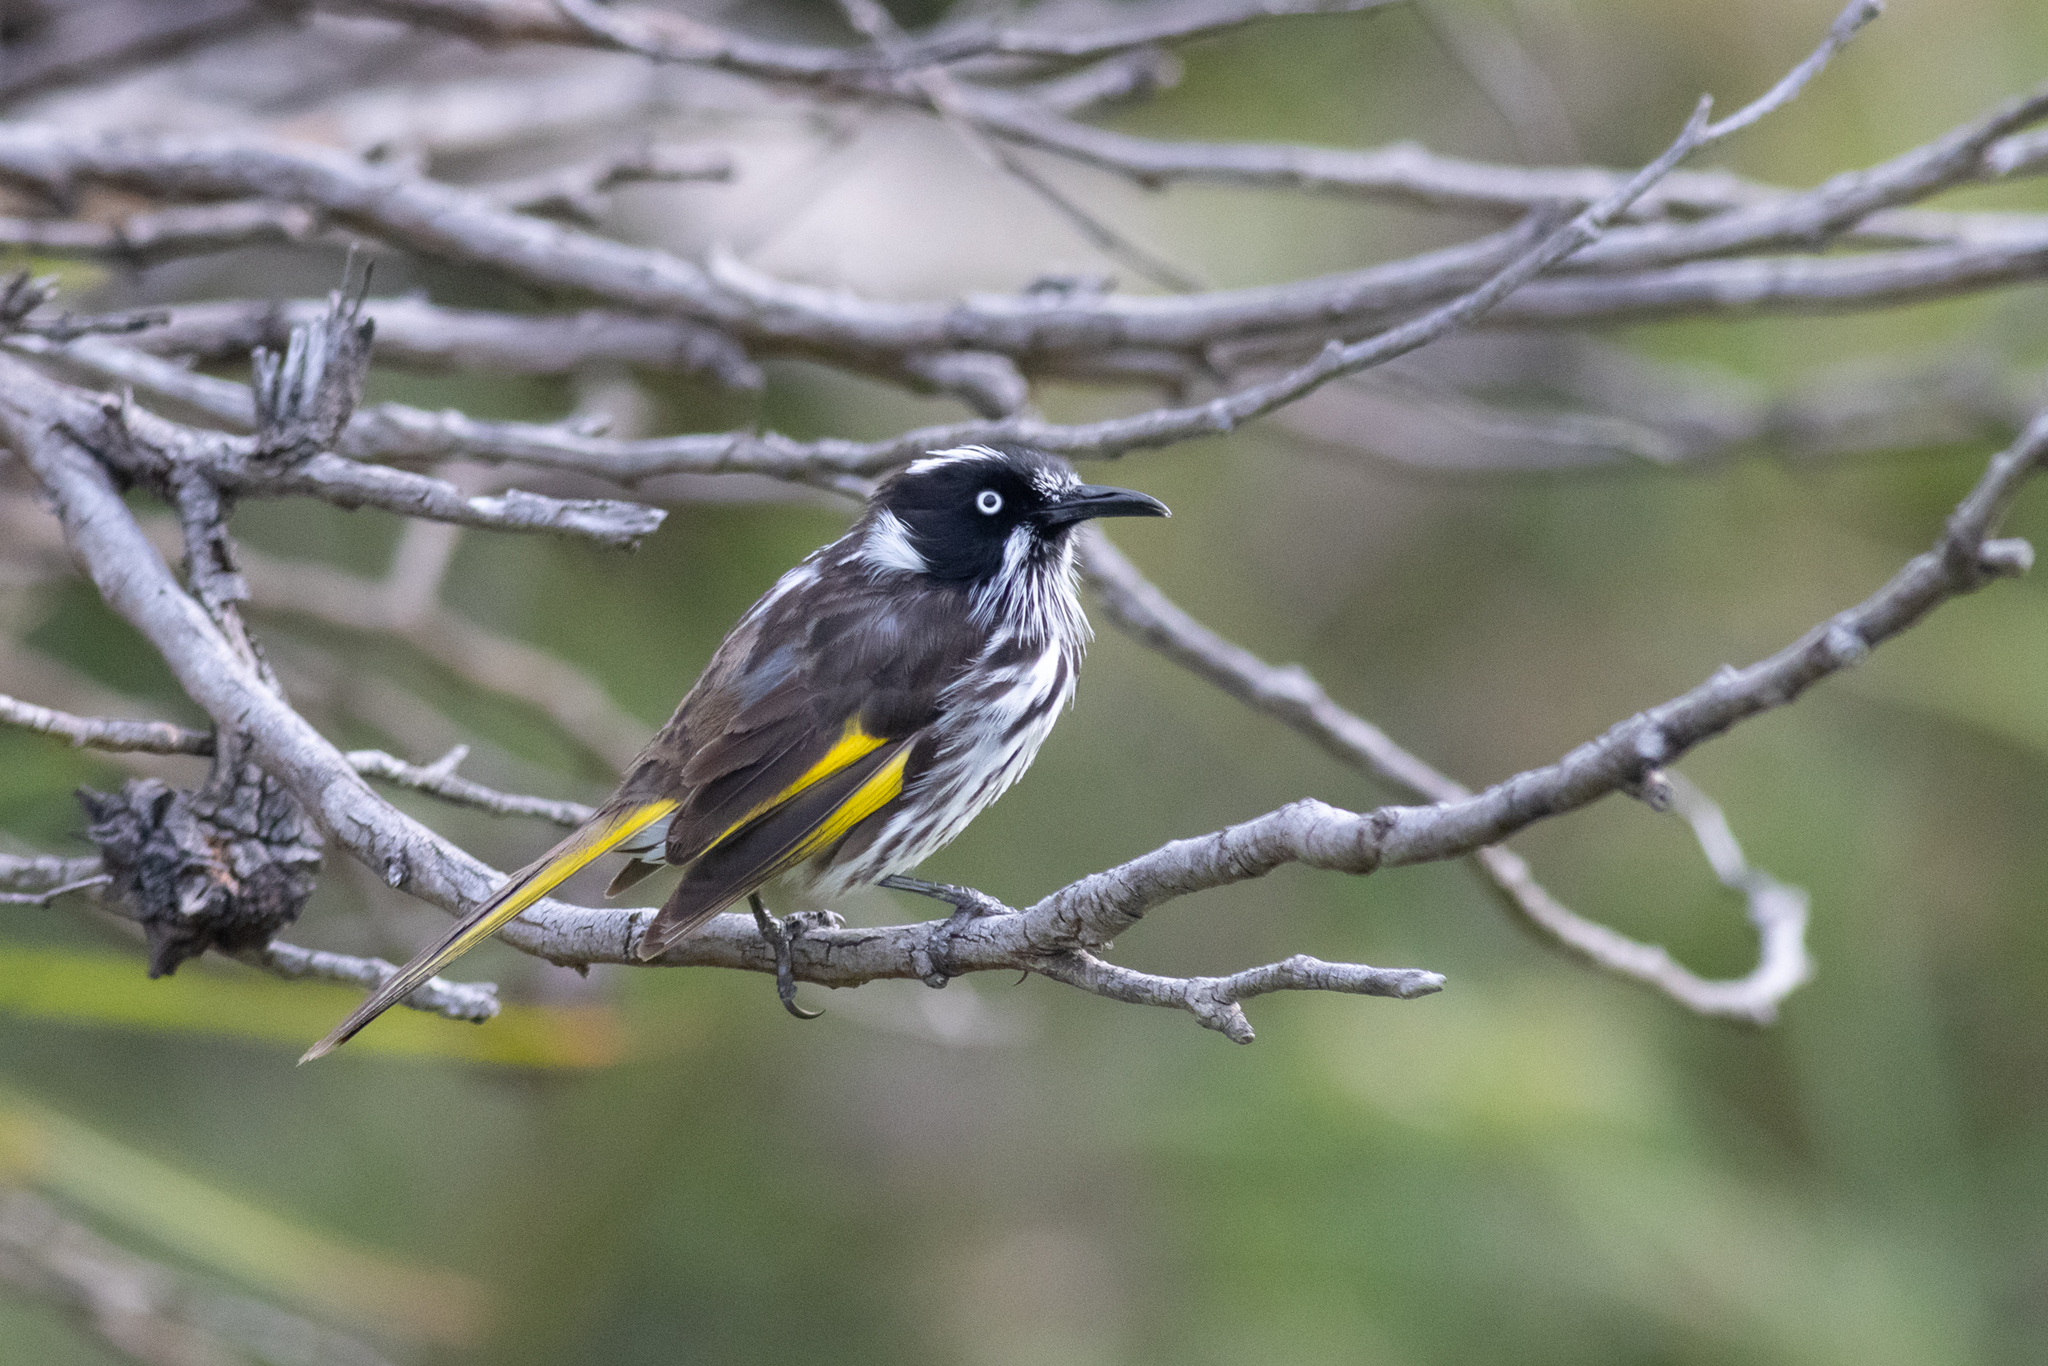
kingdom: Animalia
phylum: Chordata
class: Aves
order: Passeriformes
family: Meliphagidae
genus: Phylidonyris
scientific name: Phylidonyris novaehollandiae
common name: New holland honeyeater
